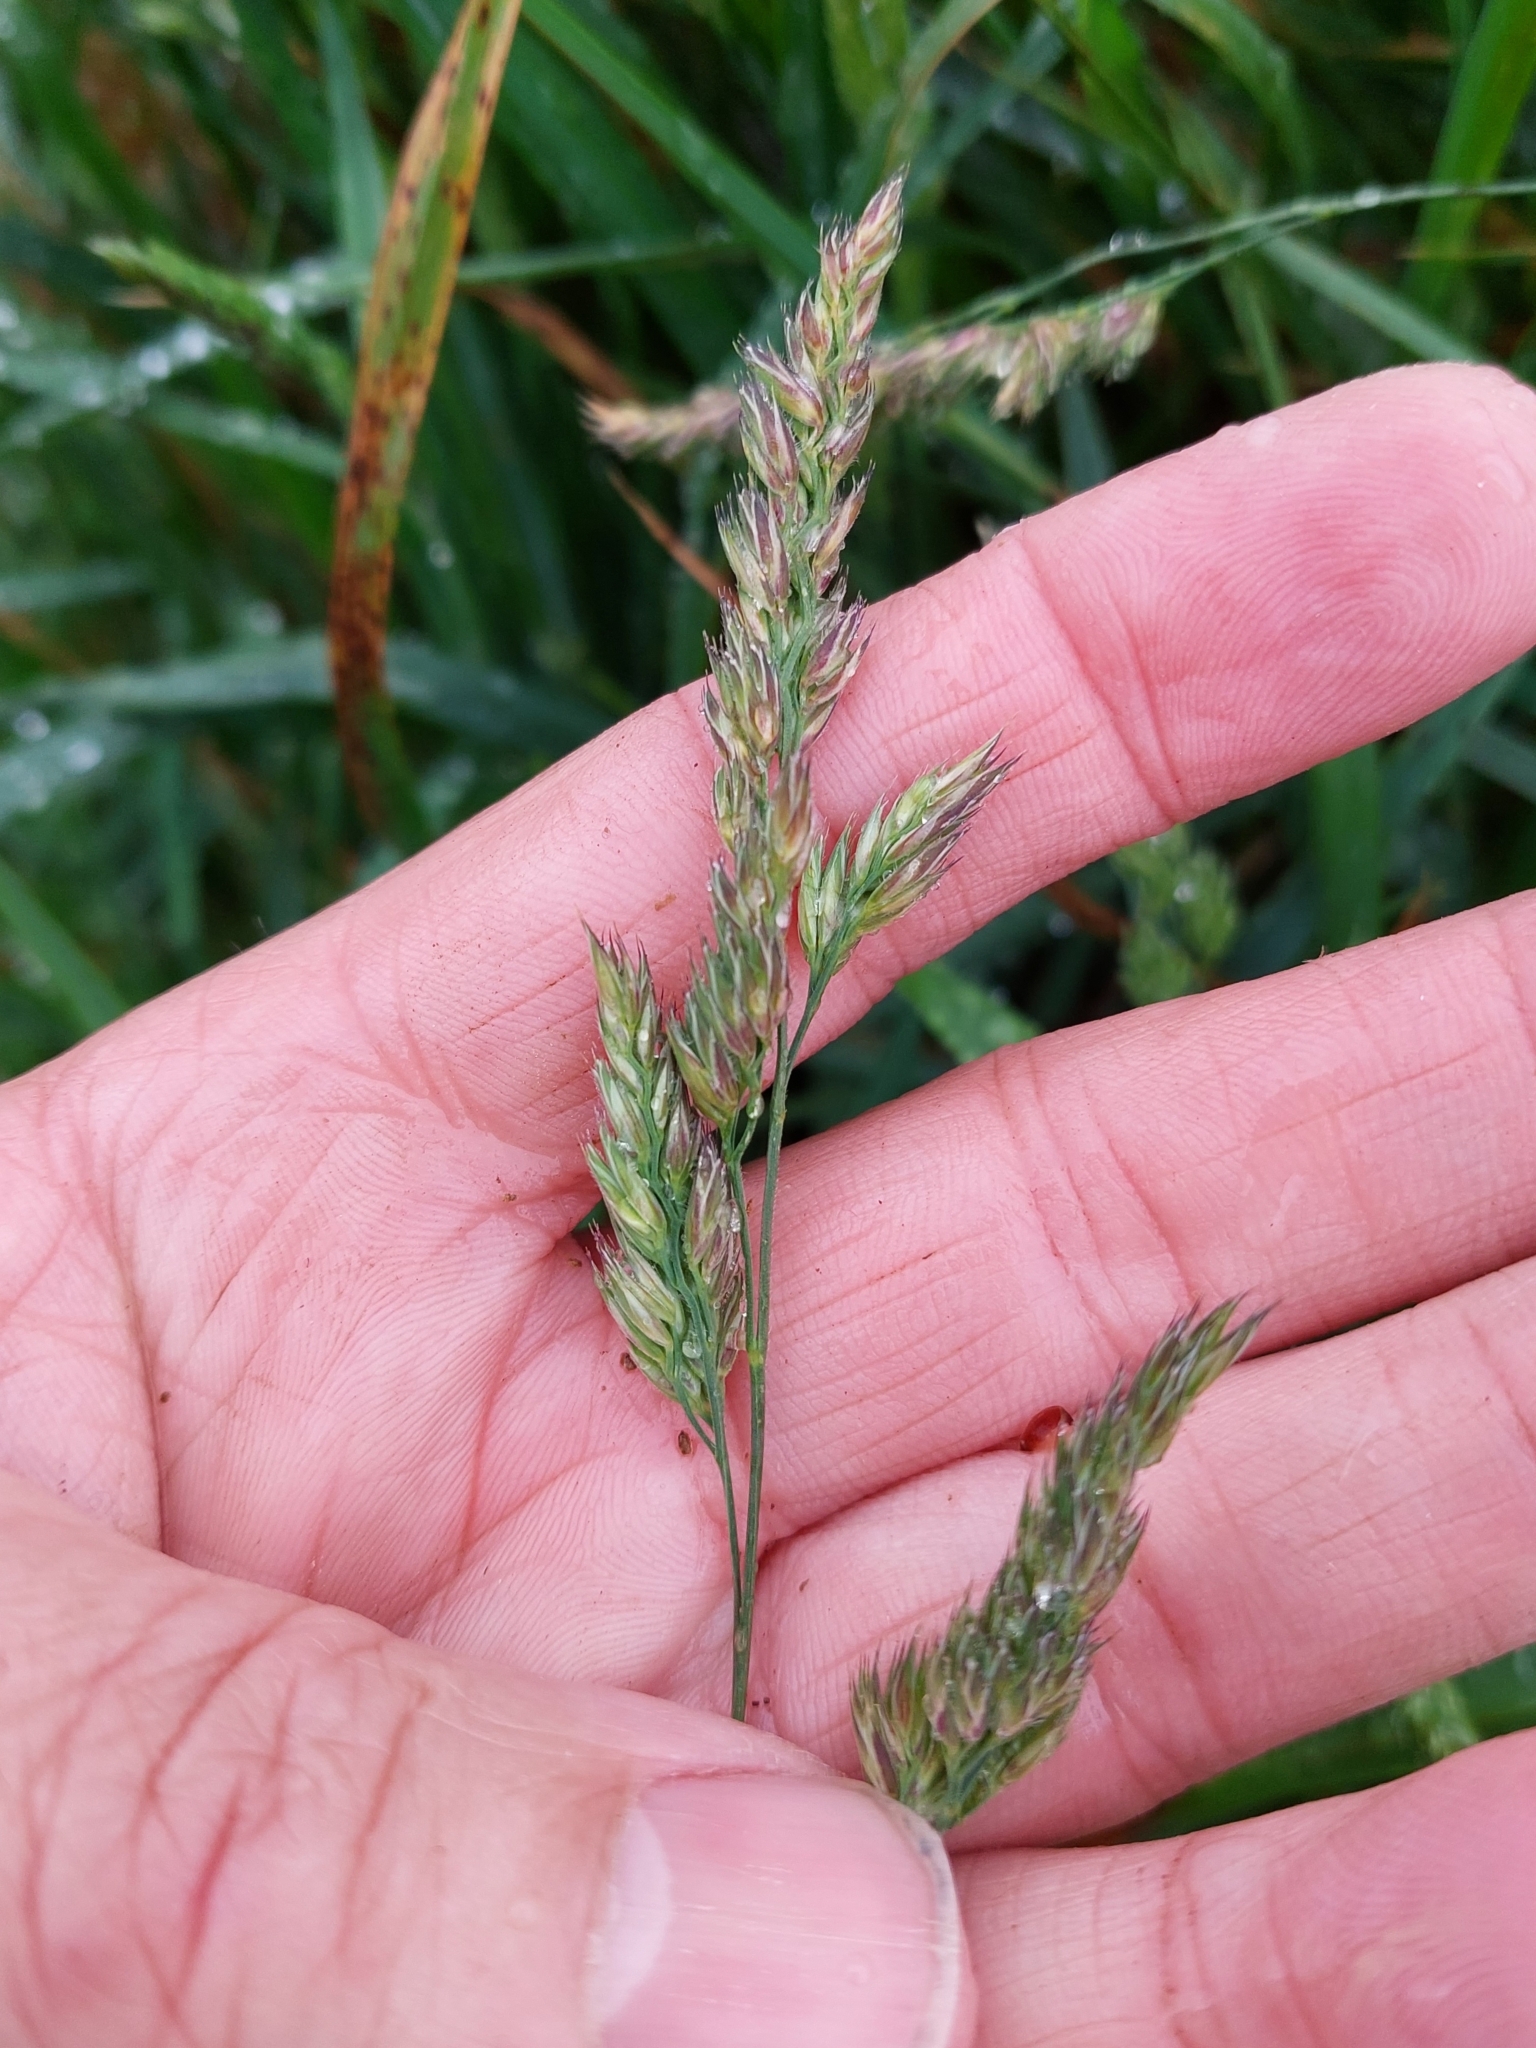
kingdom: Plantae
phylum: Tracheophyta
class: Liliopsida
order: Poales
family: Poaceae
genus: Dactylis
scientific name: Dactylis glomerata
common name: Orchardgrass
